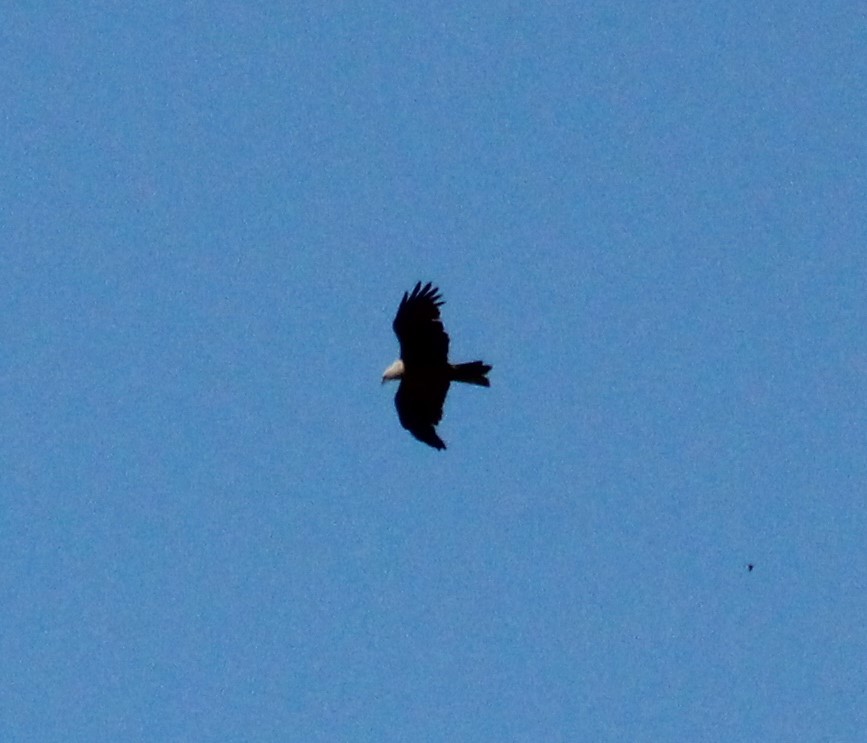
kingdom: Animalia
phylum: Chordata
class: Aves
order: Accipitriformes
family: Accipitridae
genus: Milvus
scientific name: Milvus migrans
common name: Black kite
